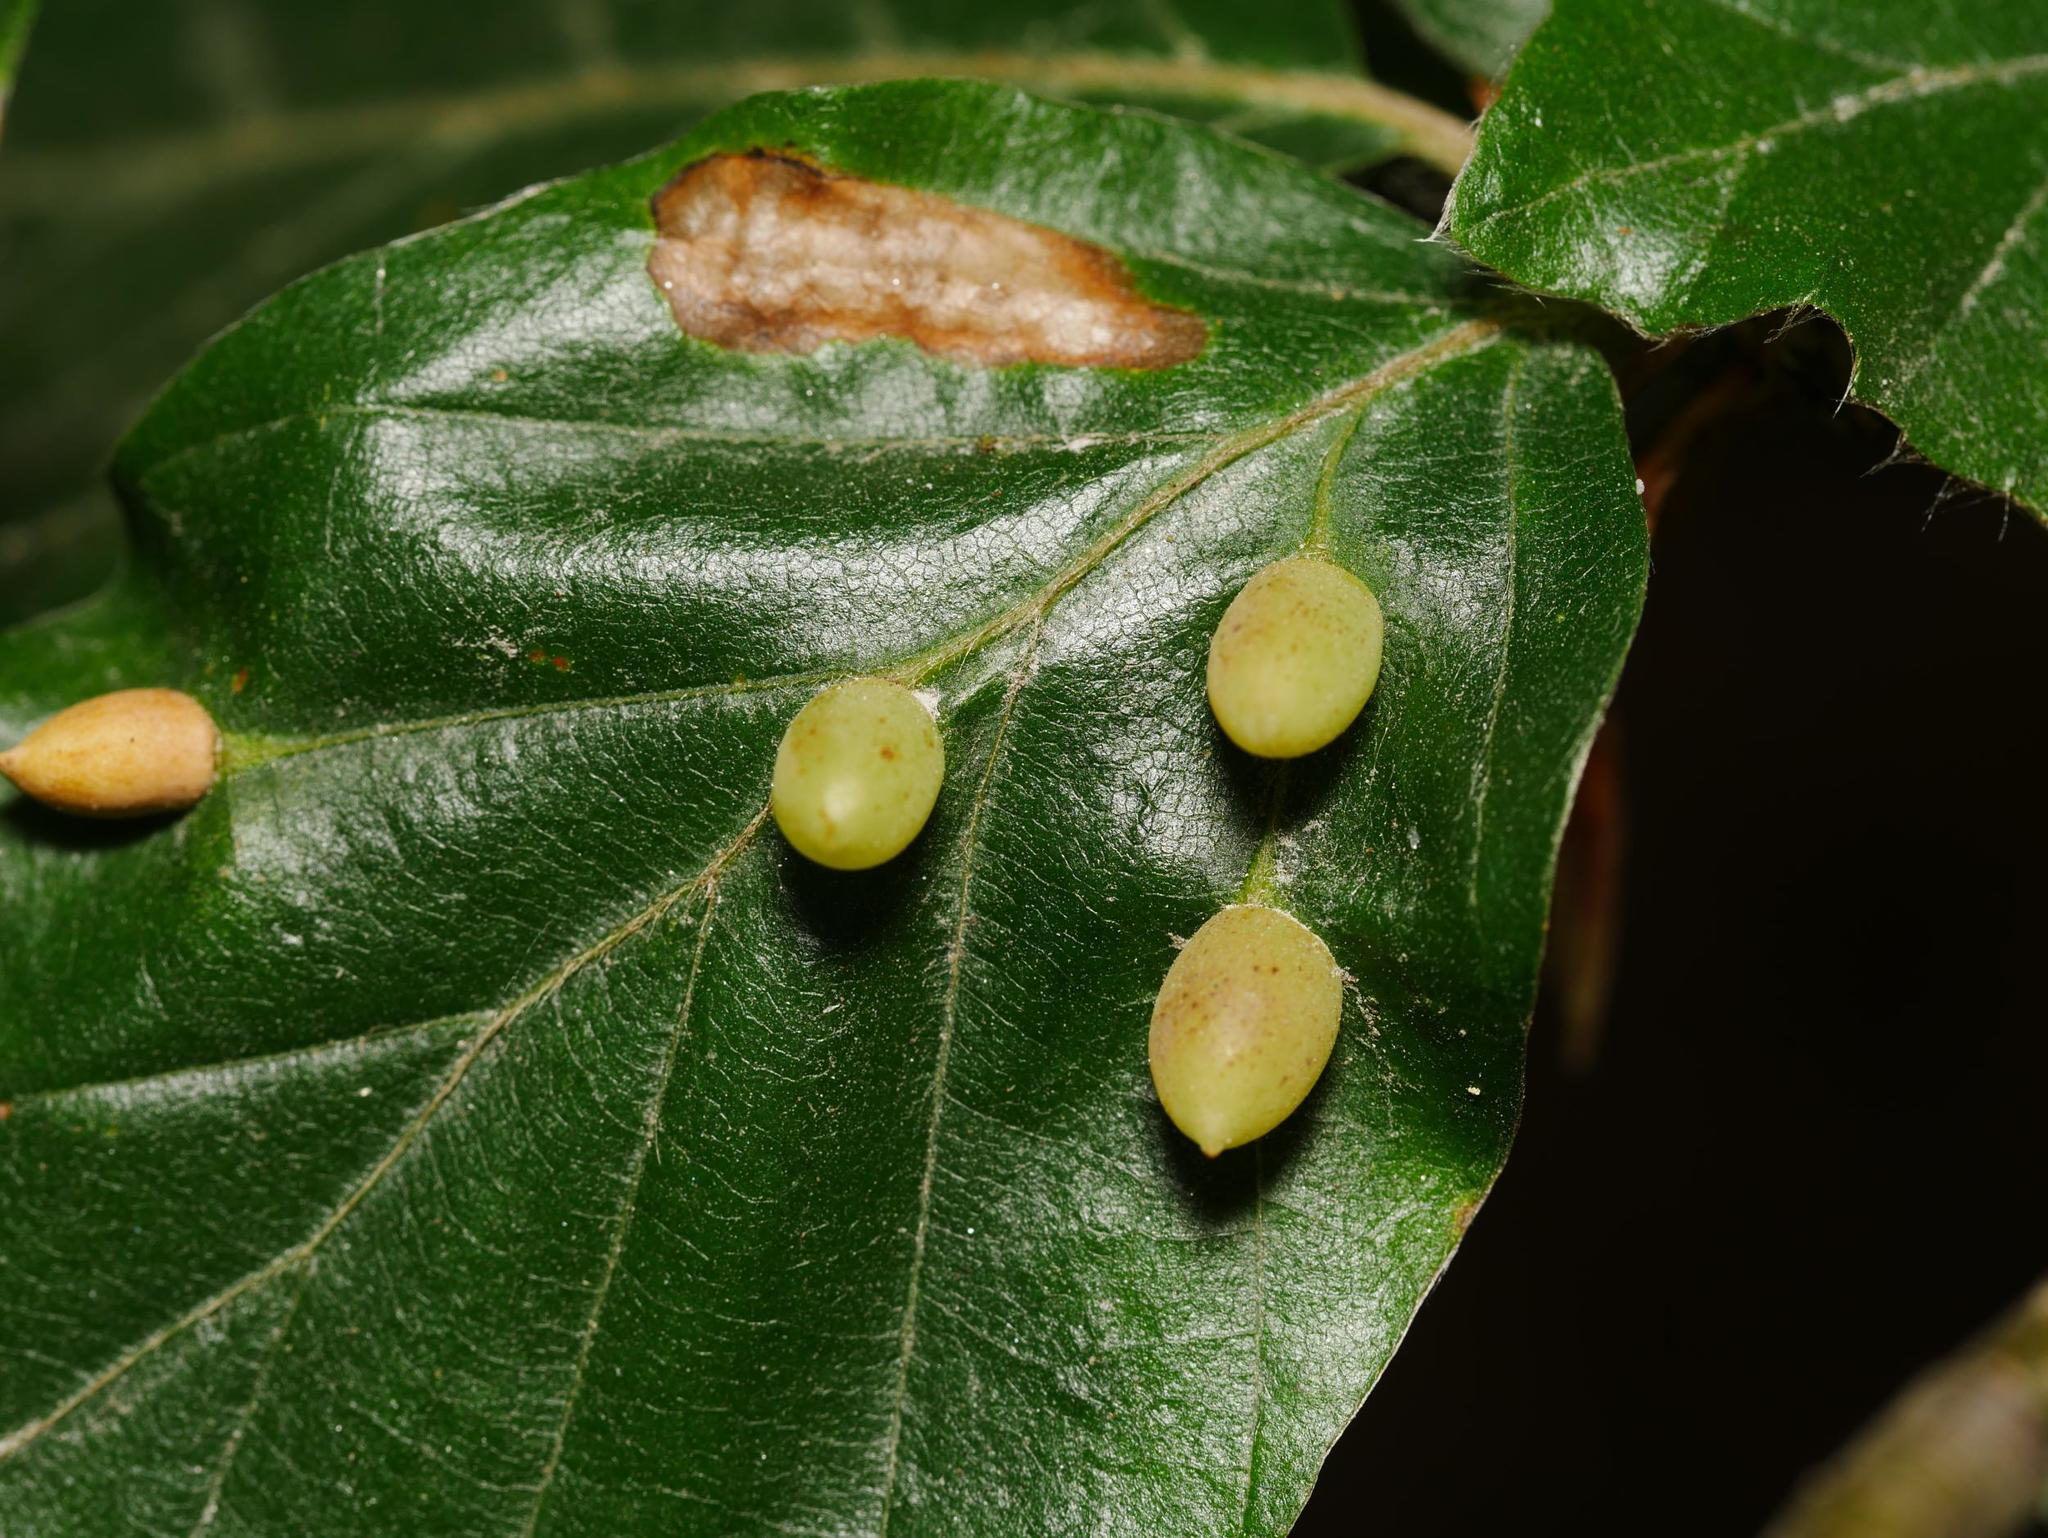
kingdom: Animalia
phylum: Arthropoda
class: Insecta
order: Diptera
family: Cecidomyiidae
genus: Mikiola
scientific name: Mikiola fagi
